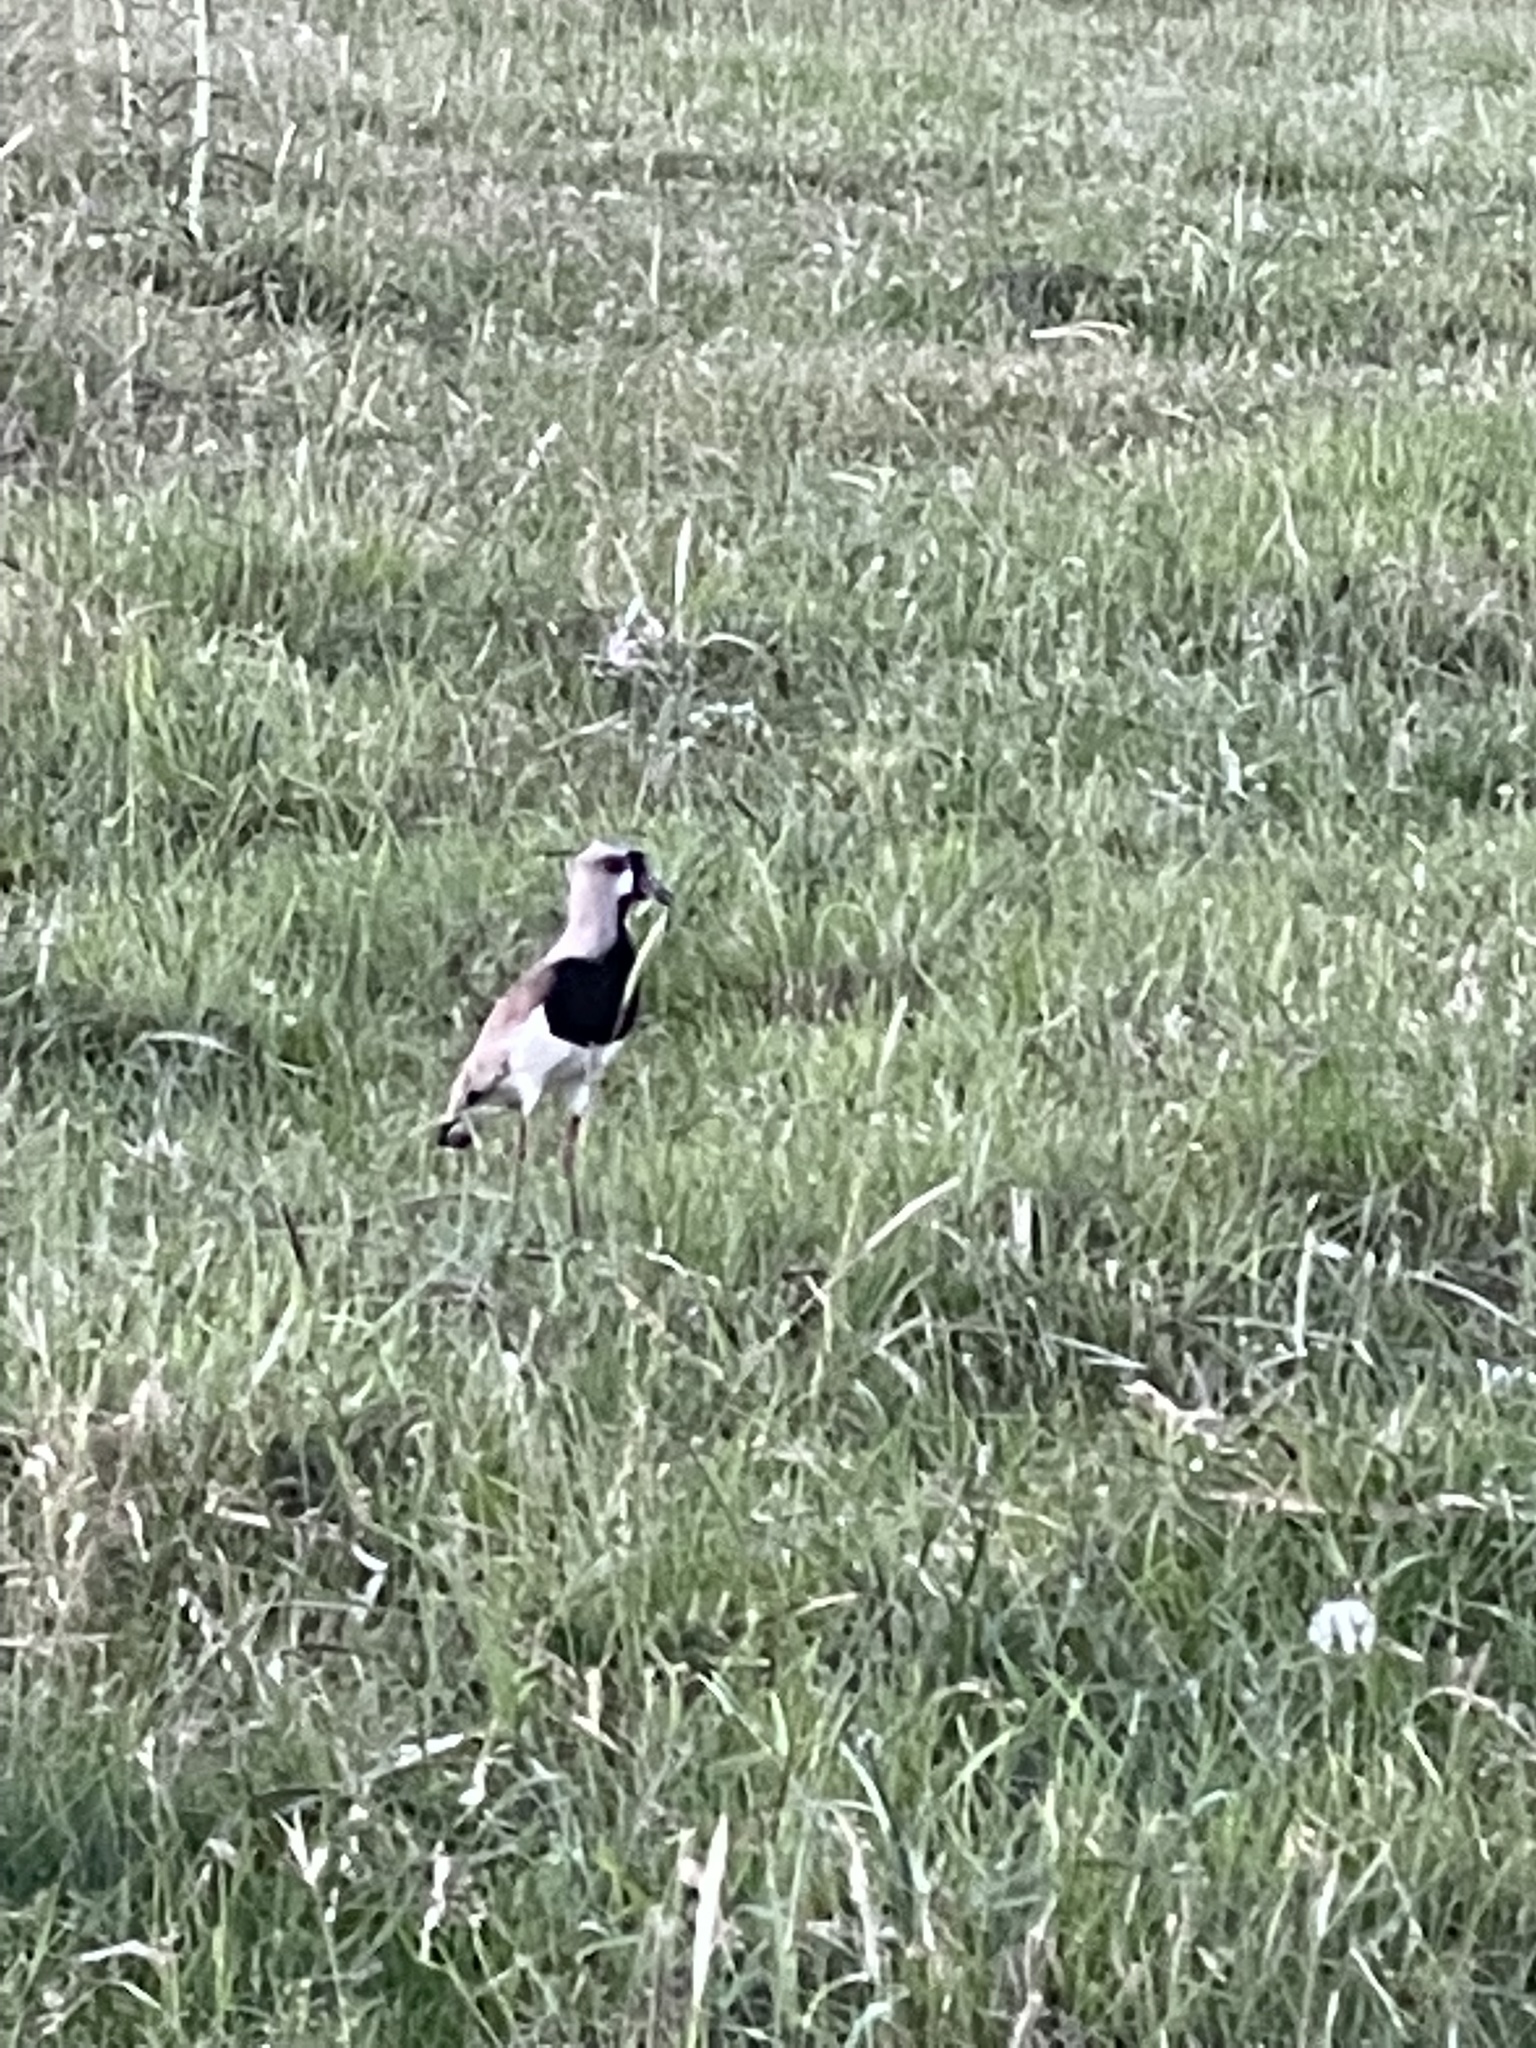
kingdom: Animalia
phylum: Chordata
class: Aves
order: Charadriiformes
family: Charadriidae
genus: Vanellus
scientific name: Vanellus chilensis
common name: Southern lapwing
